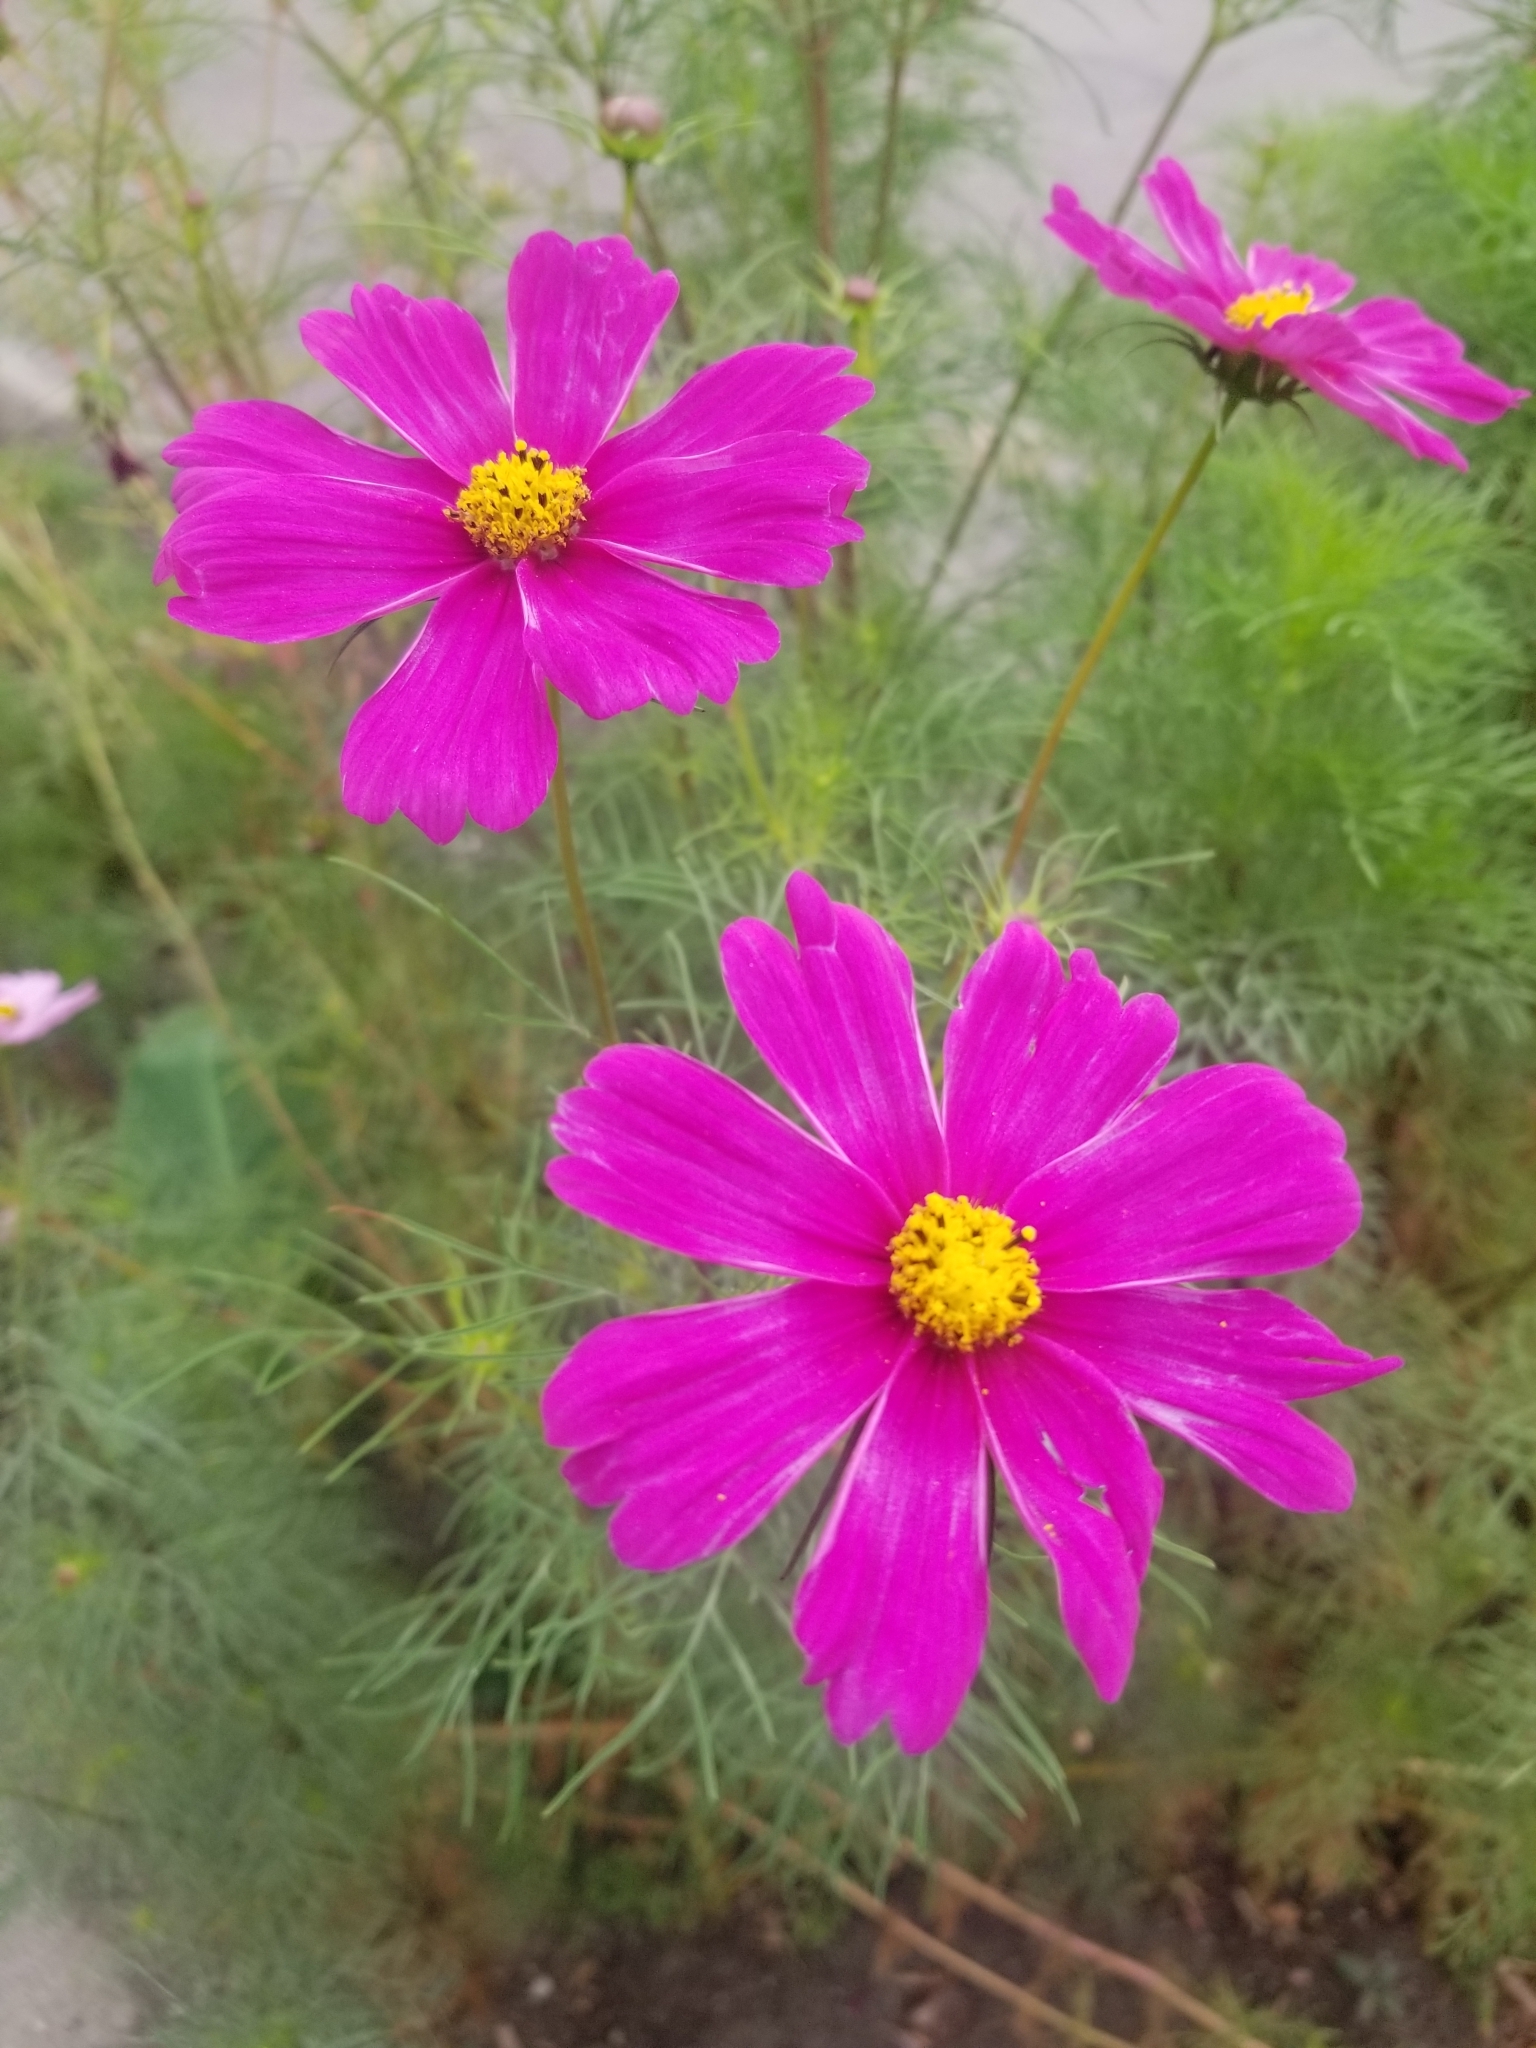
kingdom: Plantae
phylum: Tracheophyta
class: Magnoliopsida
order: Asterales
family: Asteraceae
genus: Cosmos
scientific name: Cosmos bipinnatus
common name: Garden cosmos
